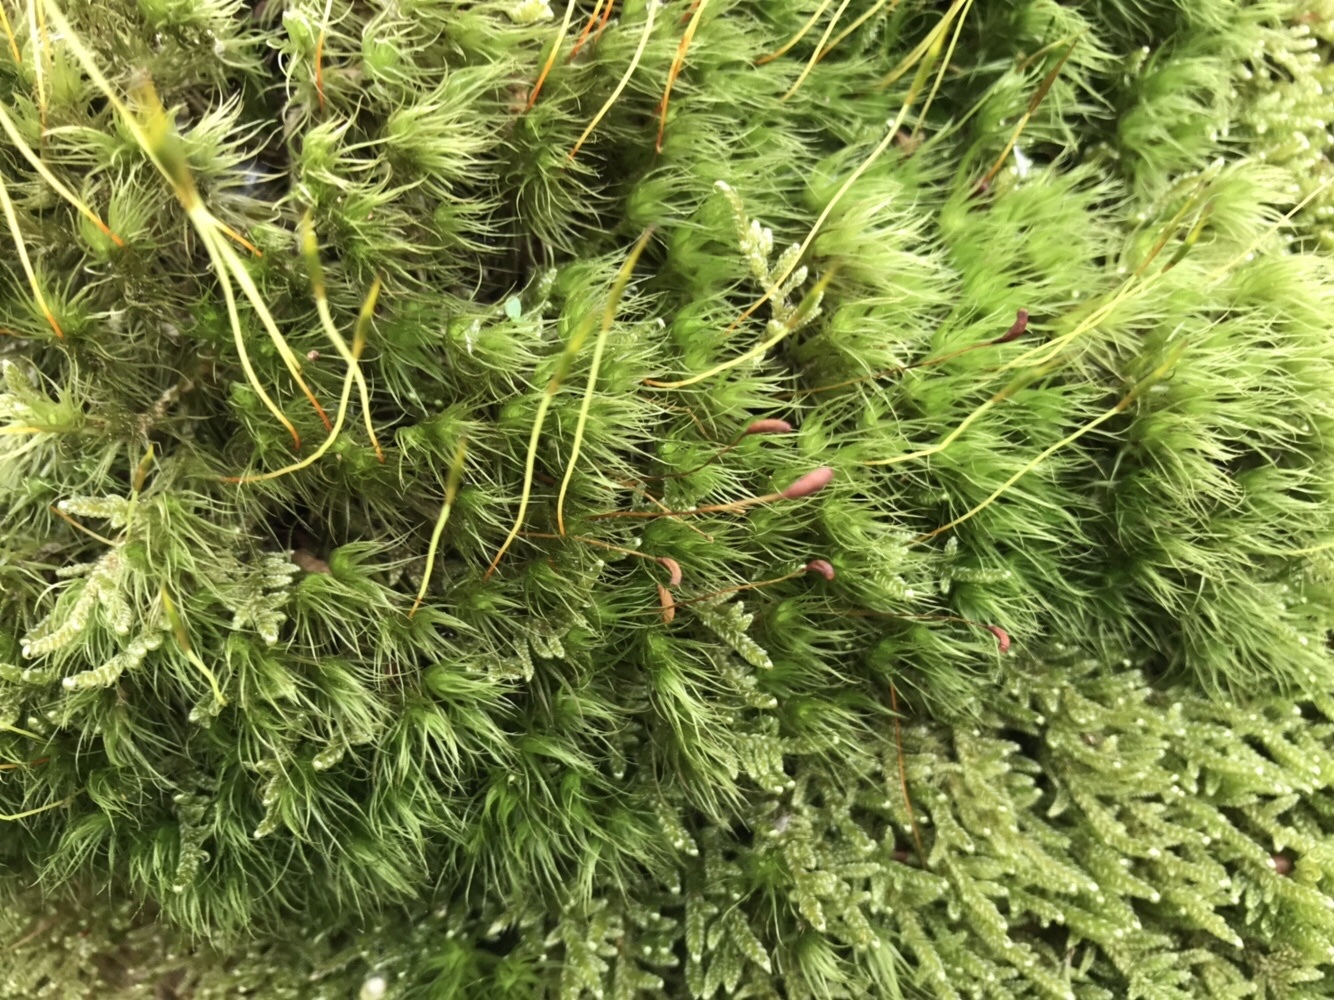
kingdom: Plantae
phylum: Bryophyta
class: Bryopsida
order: Dicranales
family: Dicranaceae
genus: Dicranum
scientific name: Dicranum scoparium
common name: Broom fork-moss
